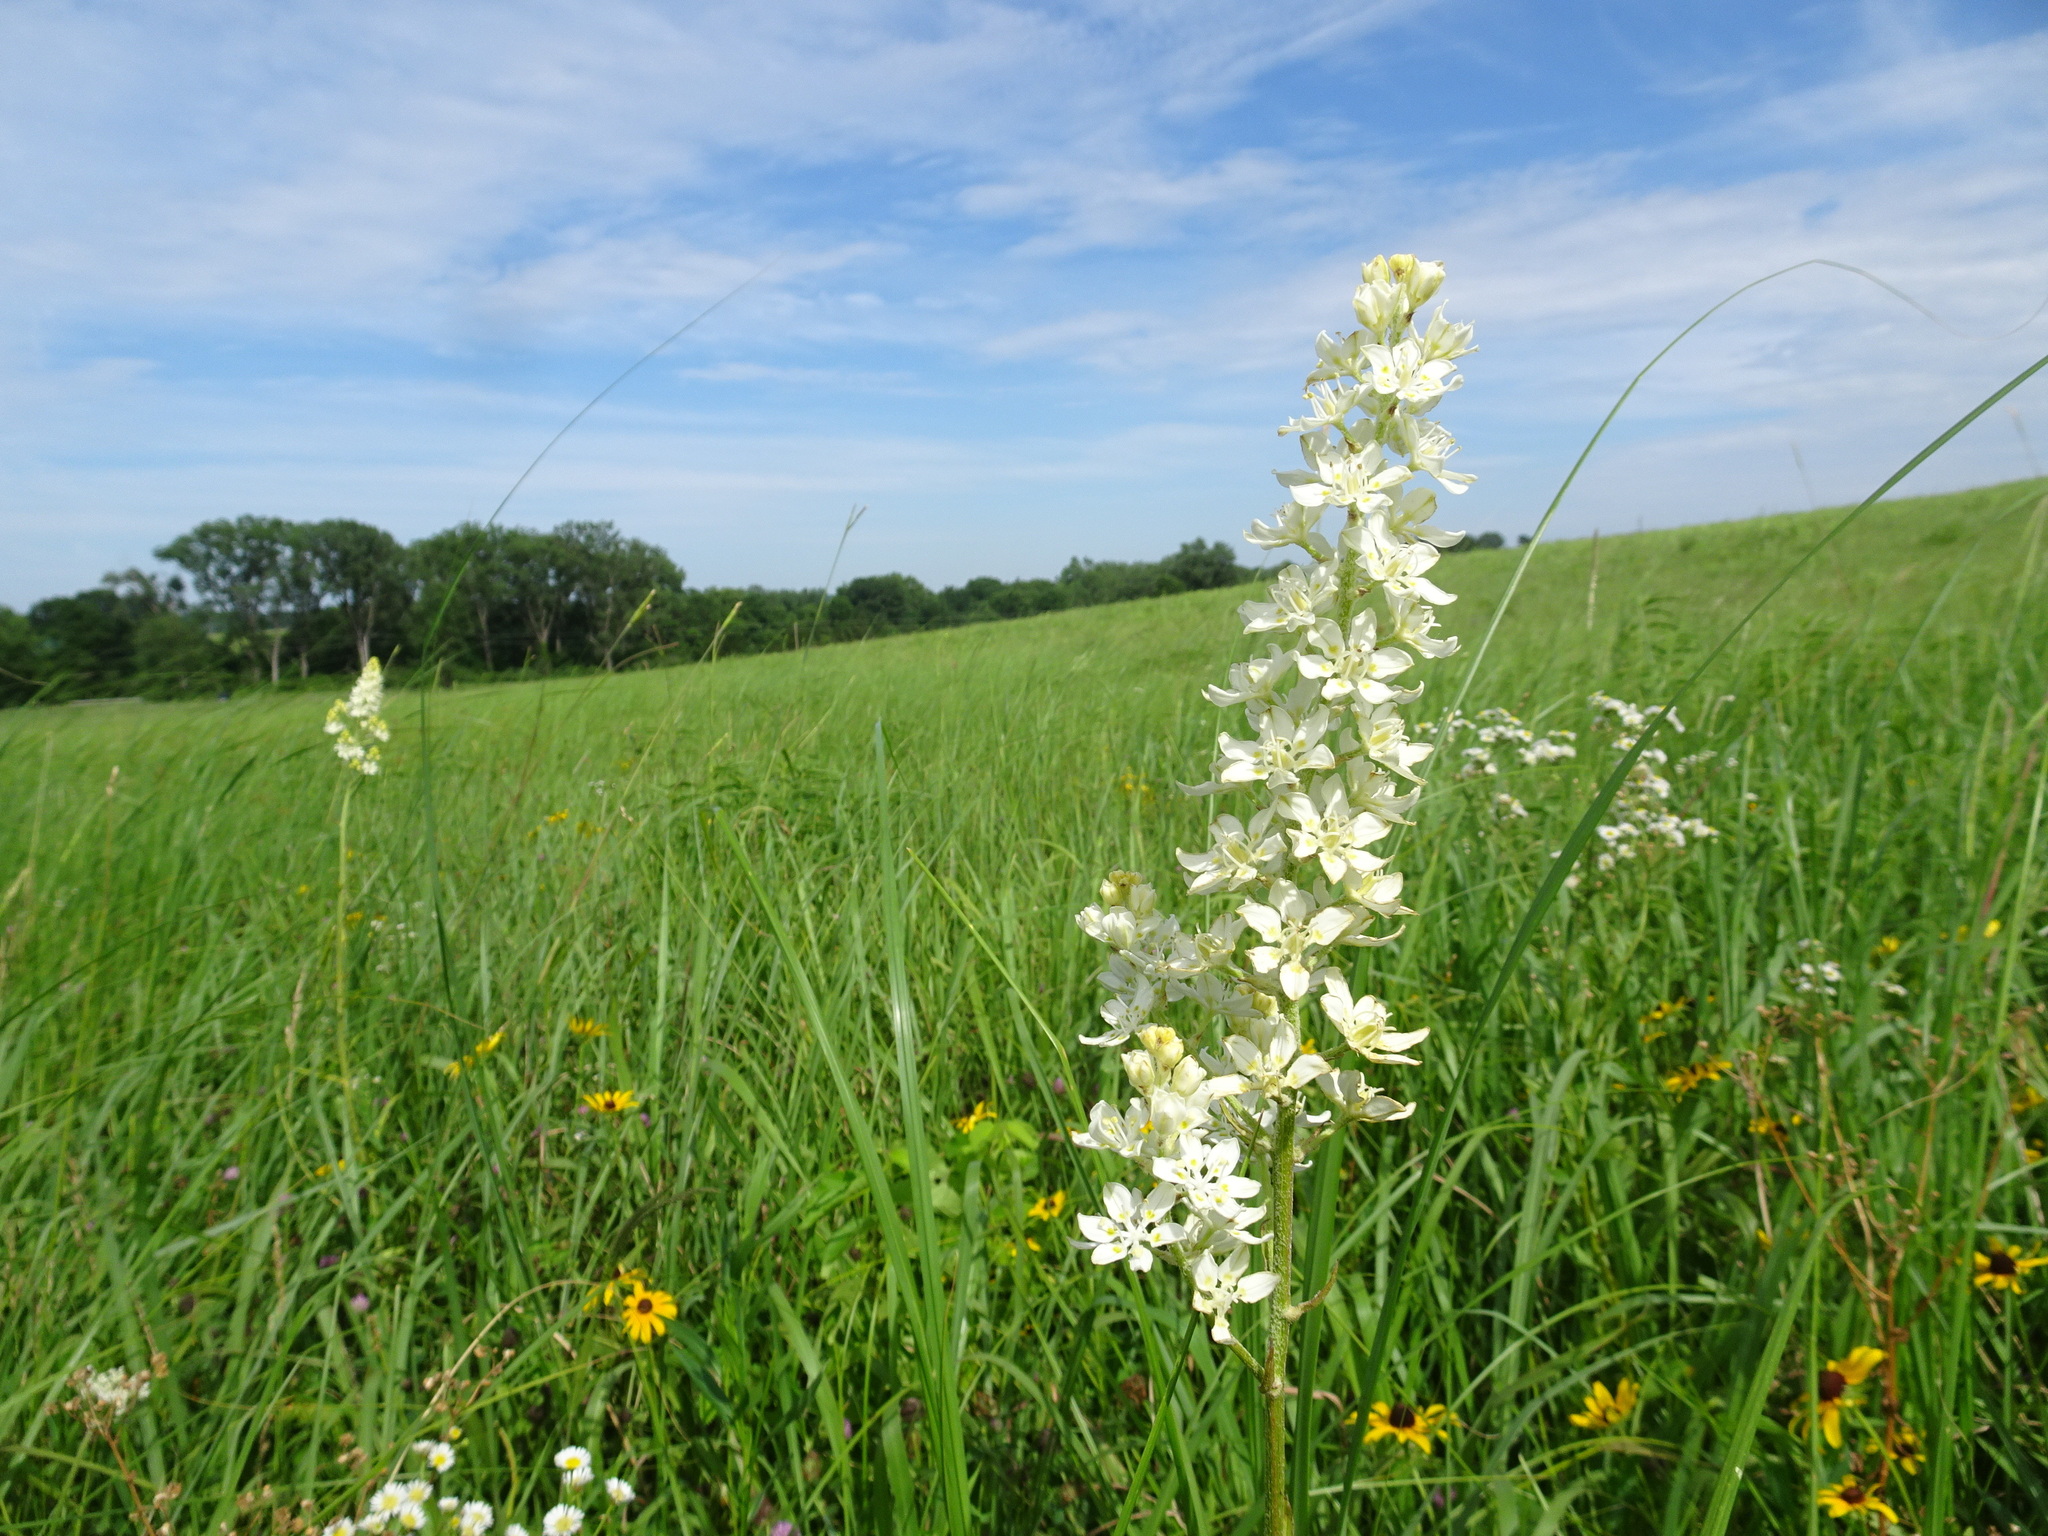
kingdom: Plantae
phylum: Tracheophyta
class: Liliopsida
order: Liliales
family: Melanthiaceae
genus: Melanthium
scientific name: Melanthium virginicum
